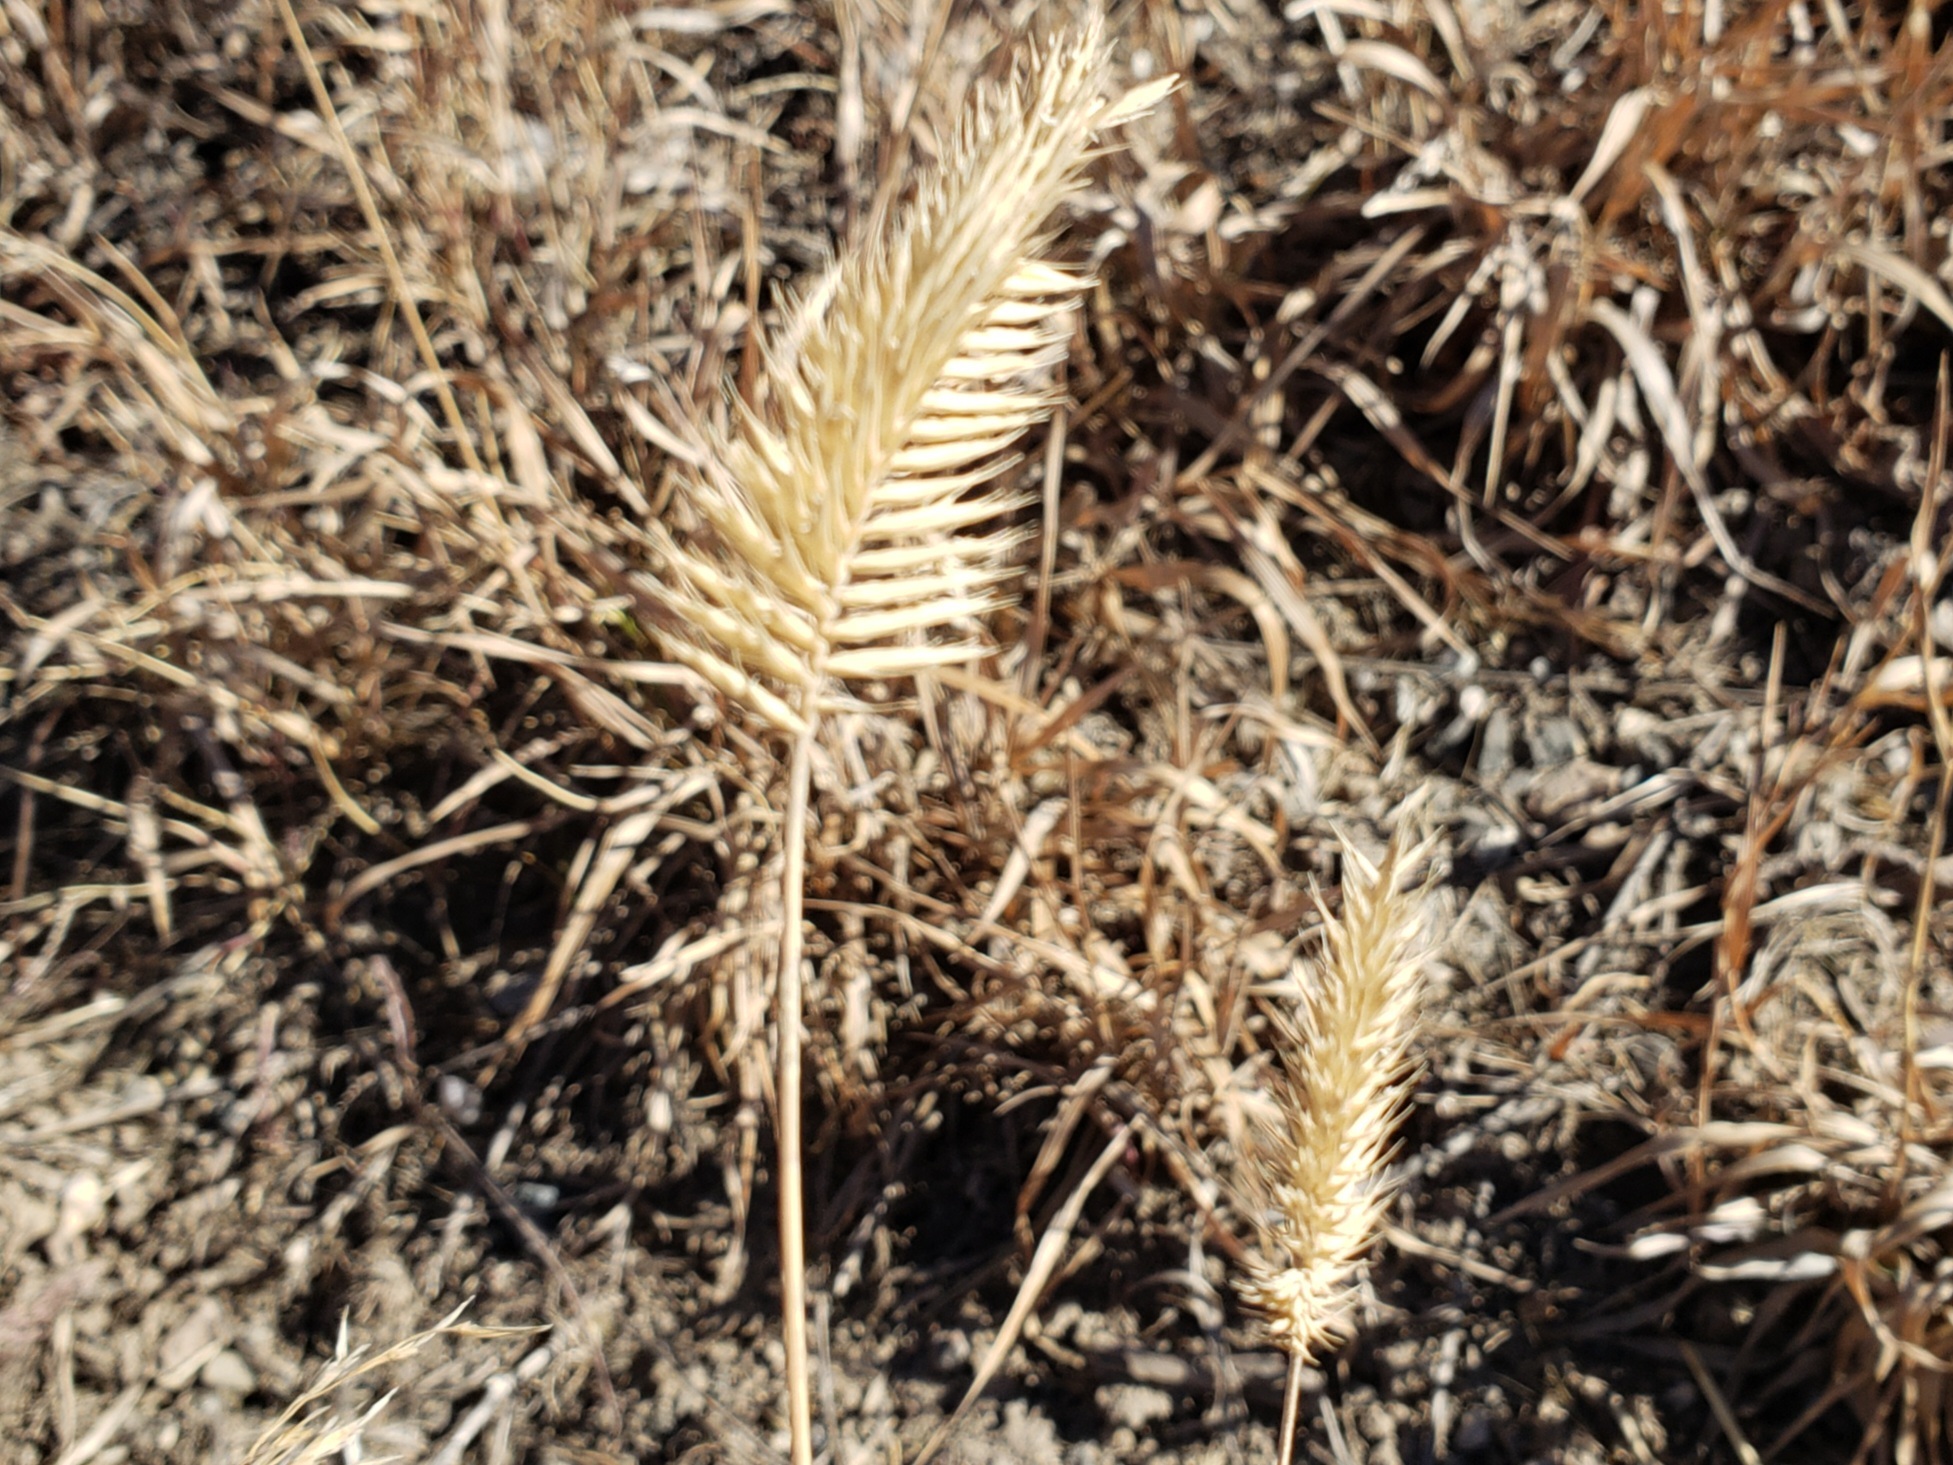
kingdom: Plantae
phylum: Tracheophyta
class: Liliopsida
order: Poales
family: Poaceae
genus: Agropyron
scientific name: Agropyron cristatum
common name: Crested wheatgrass
